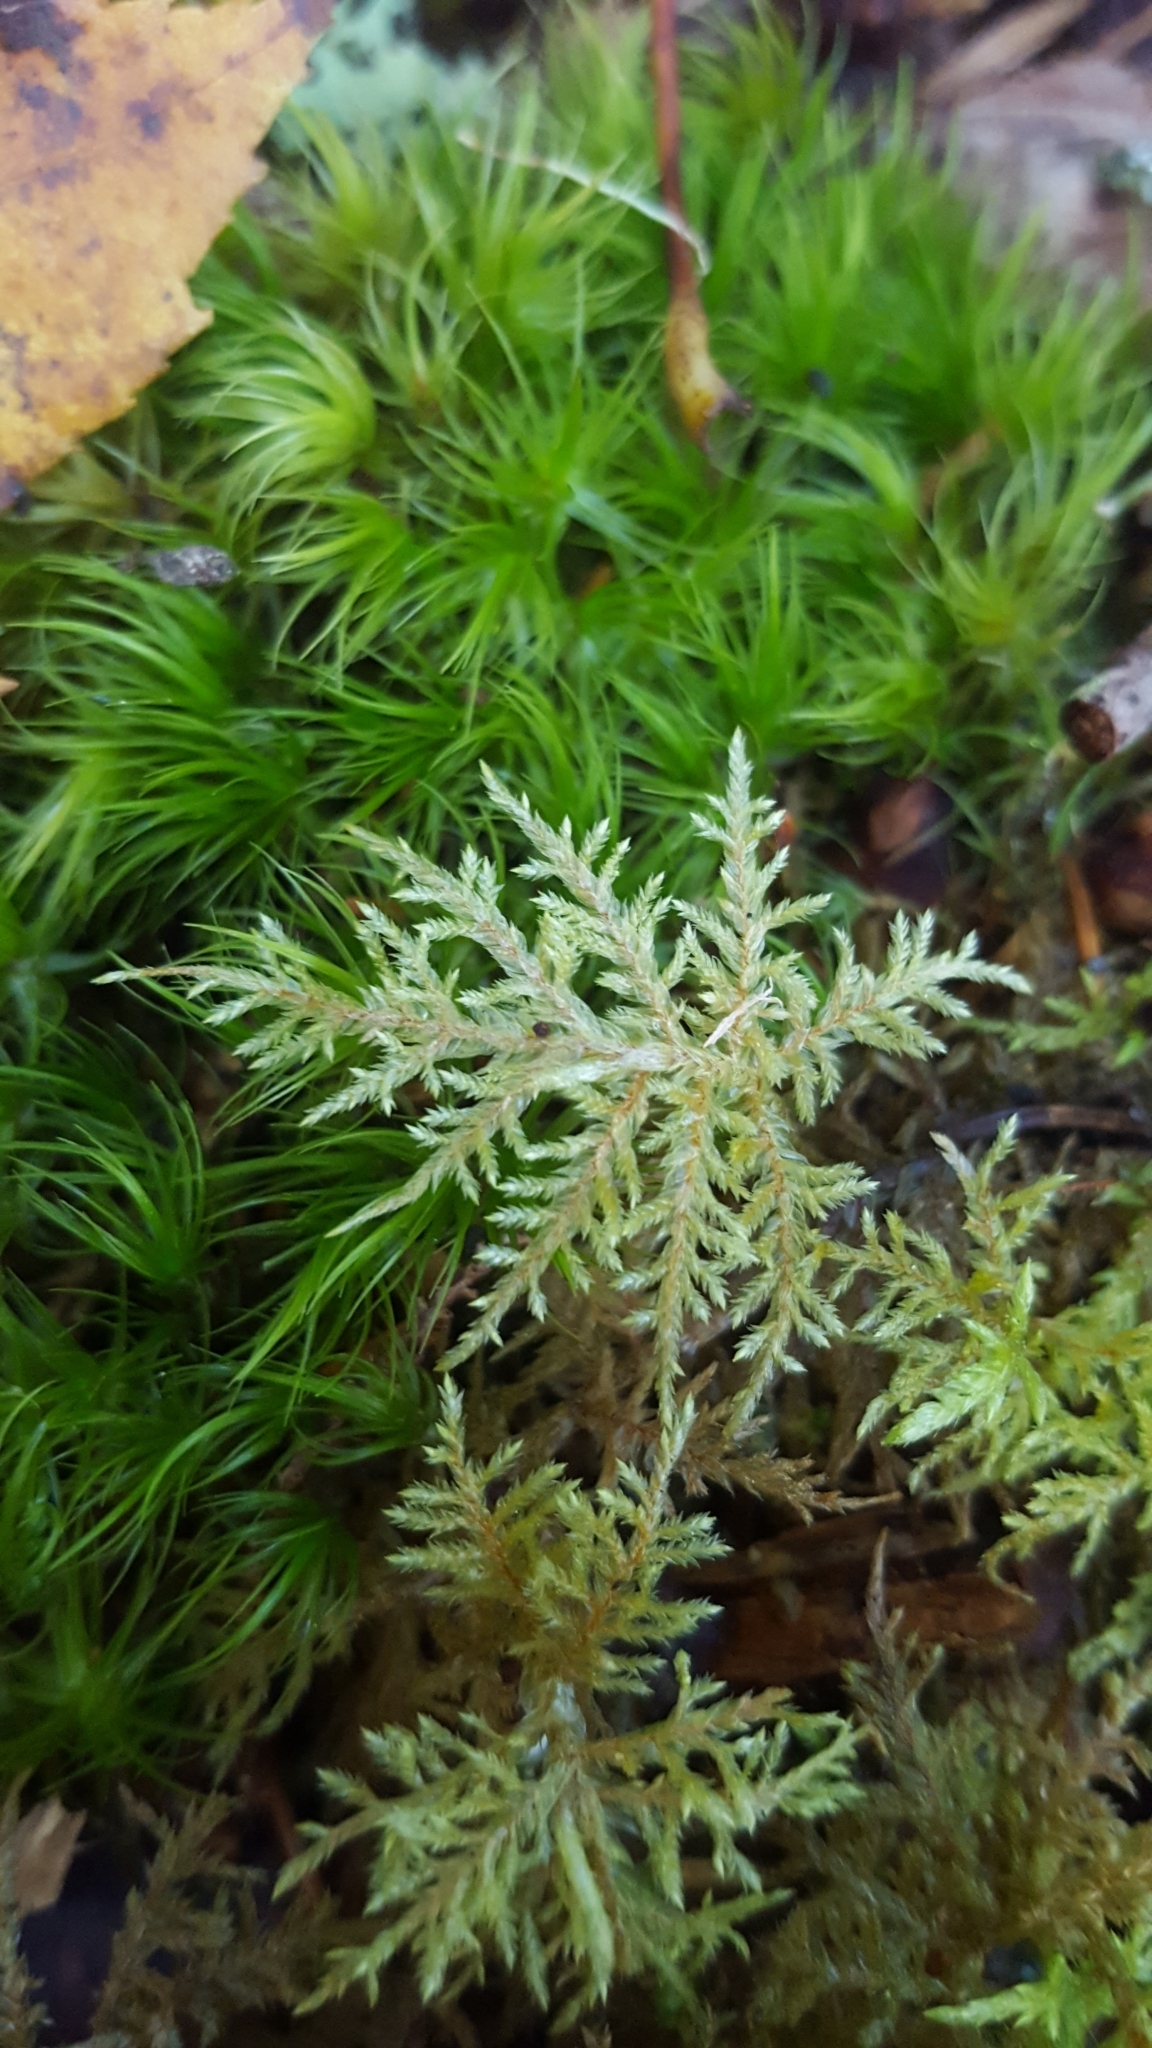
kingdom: Plantae
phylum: Bryophyta
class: Bryopsida
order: Hypnales
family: Hylocomiaceae
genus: Hylocomium
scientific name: Hylocomium splendens
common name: Stairstep moss
